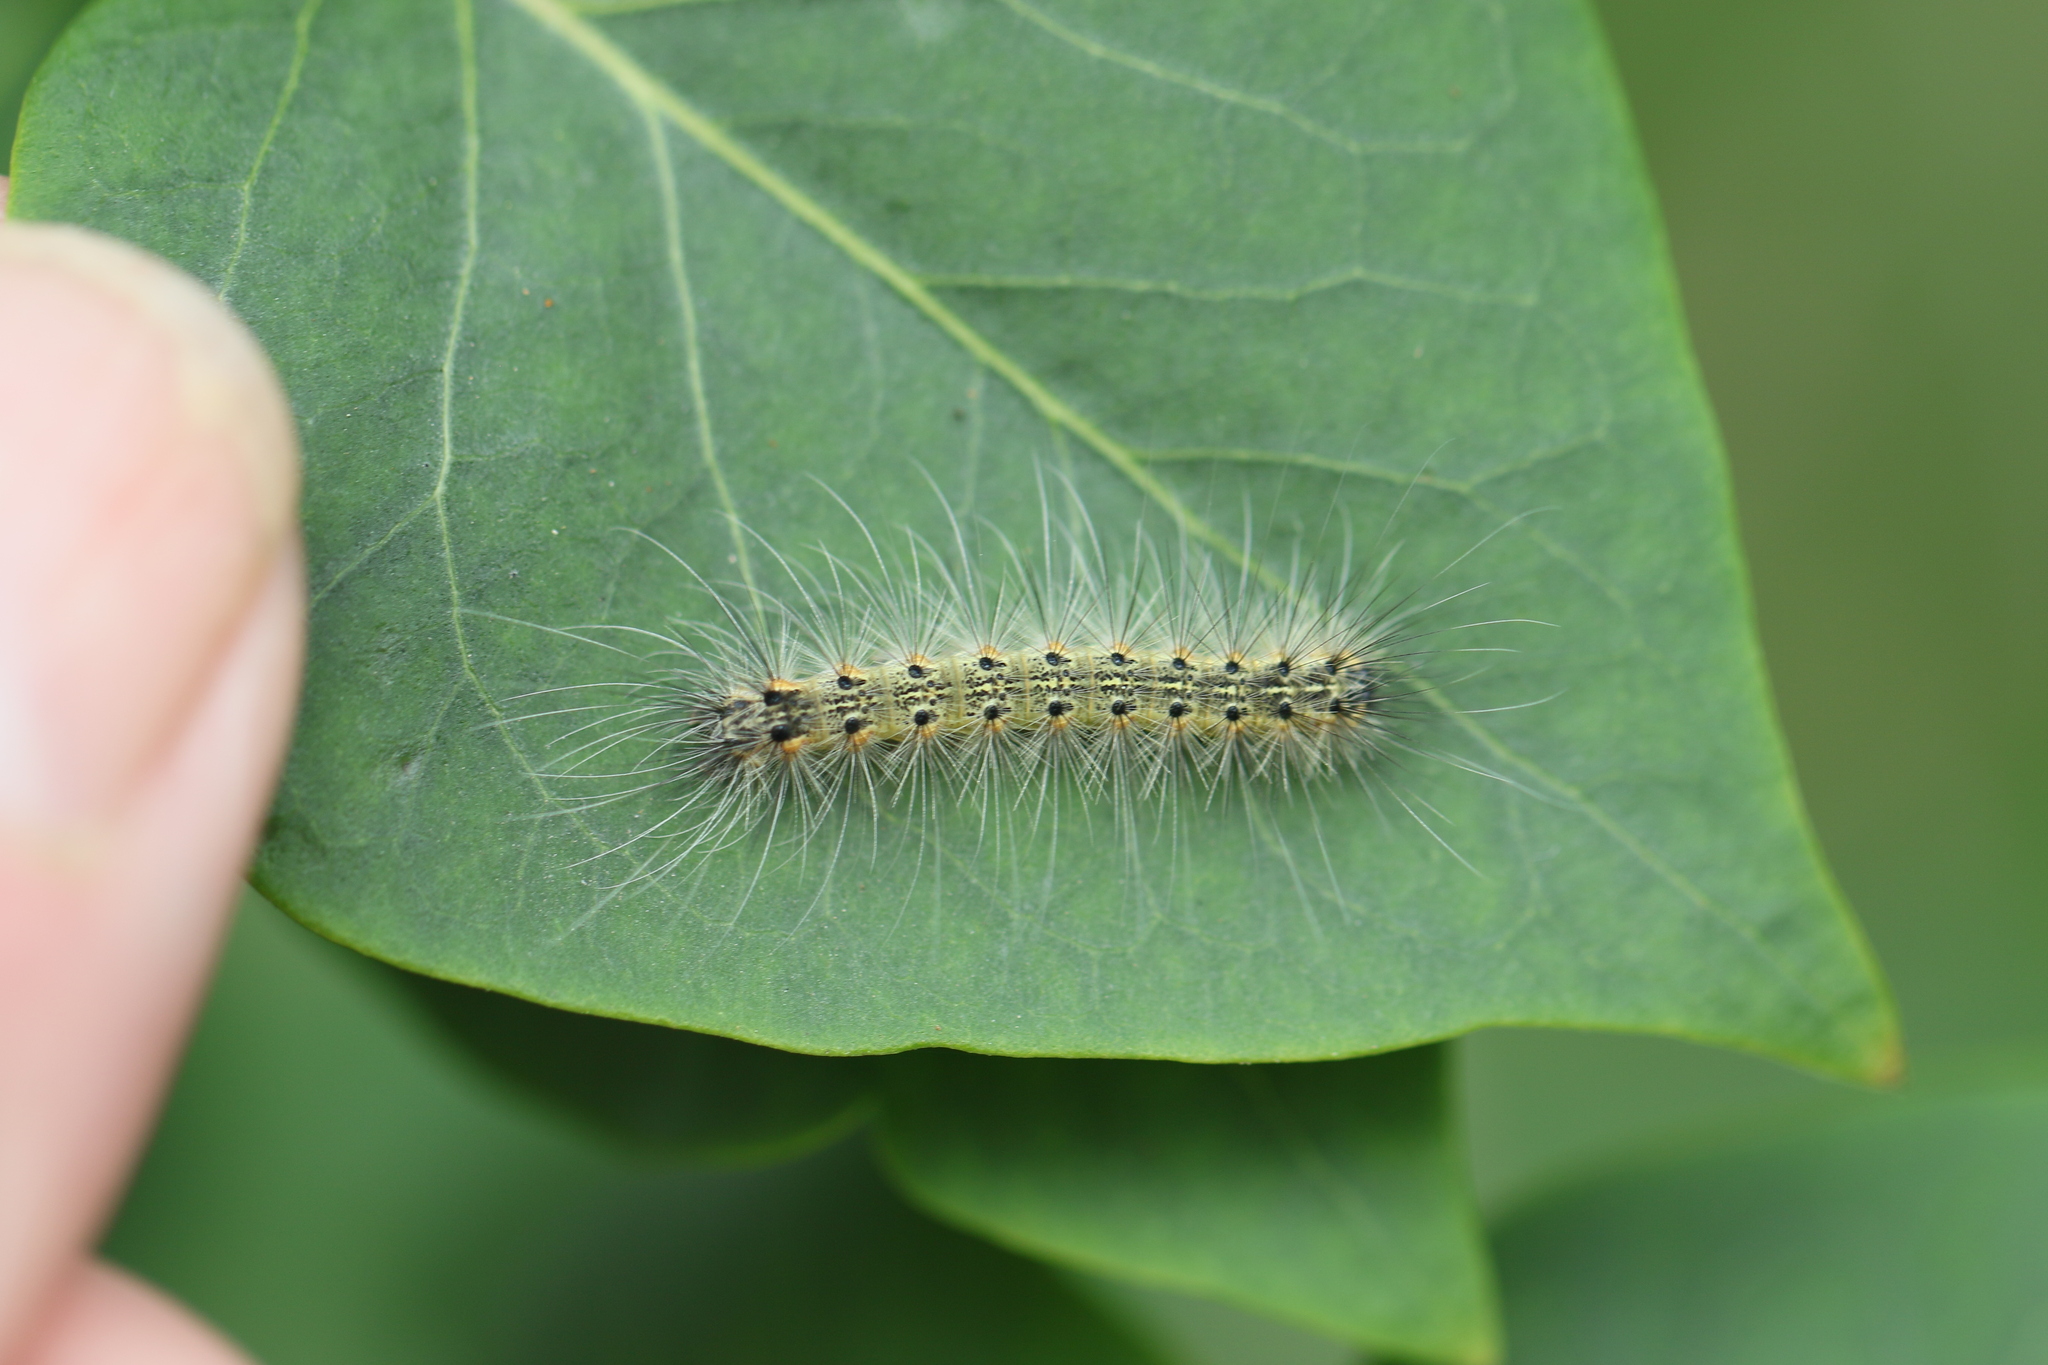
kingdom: Animalia
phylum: Arthropoda
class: Insecta
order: Lepidoptera
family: Erebidae
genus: Hyphantria
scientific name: Hyphantria cunea
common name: American white moth
